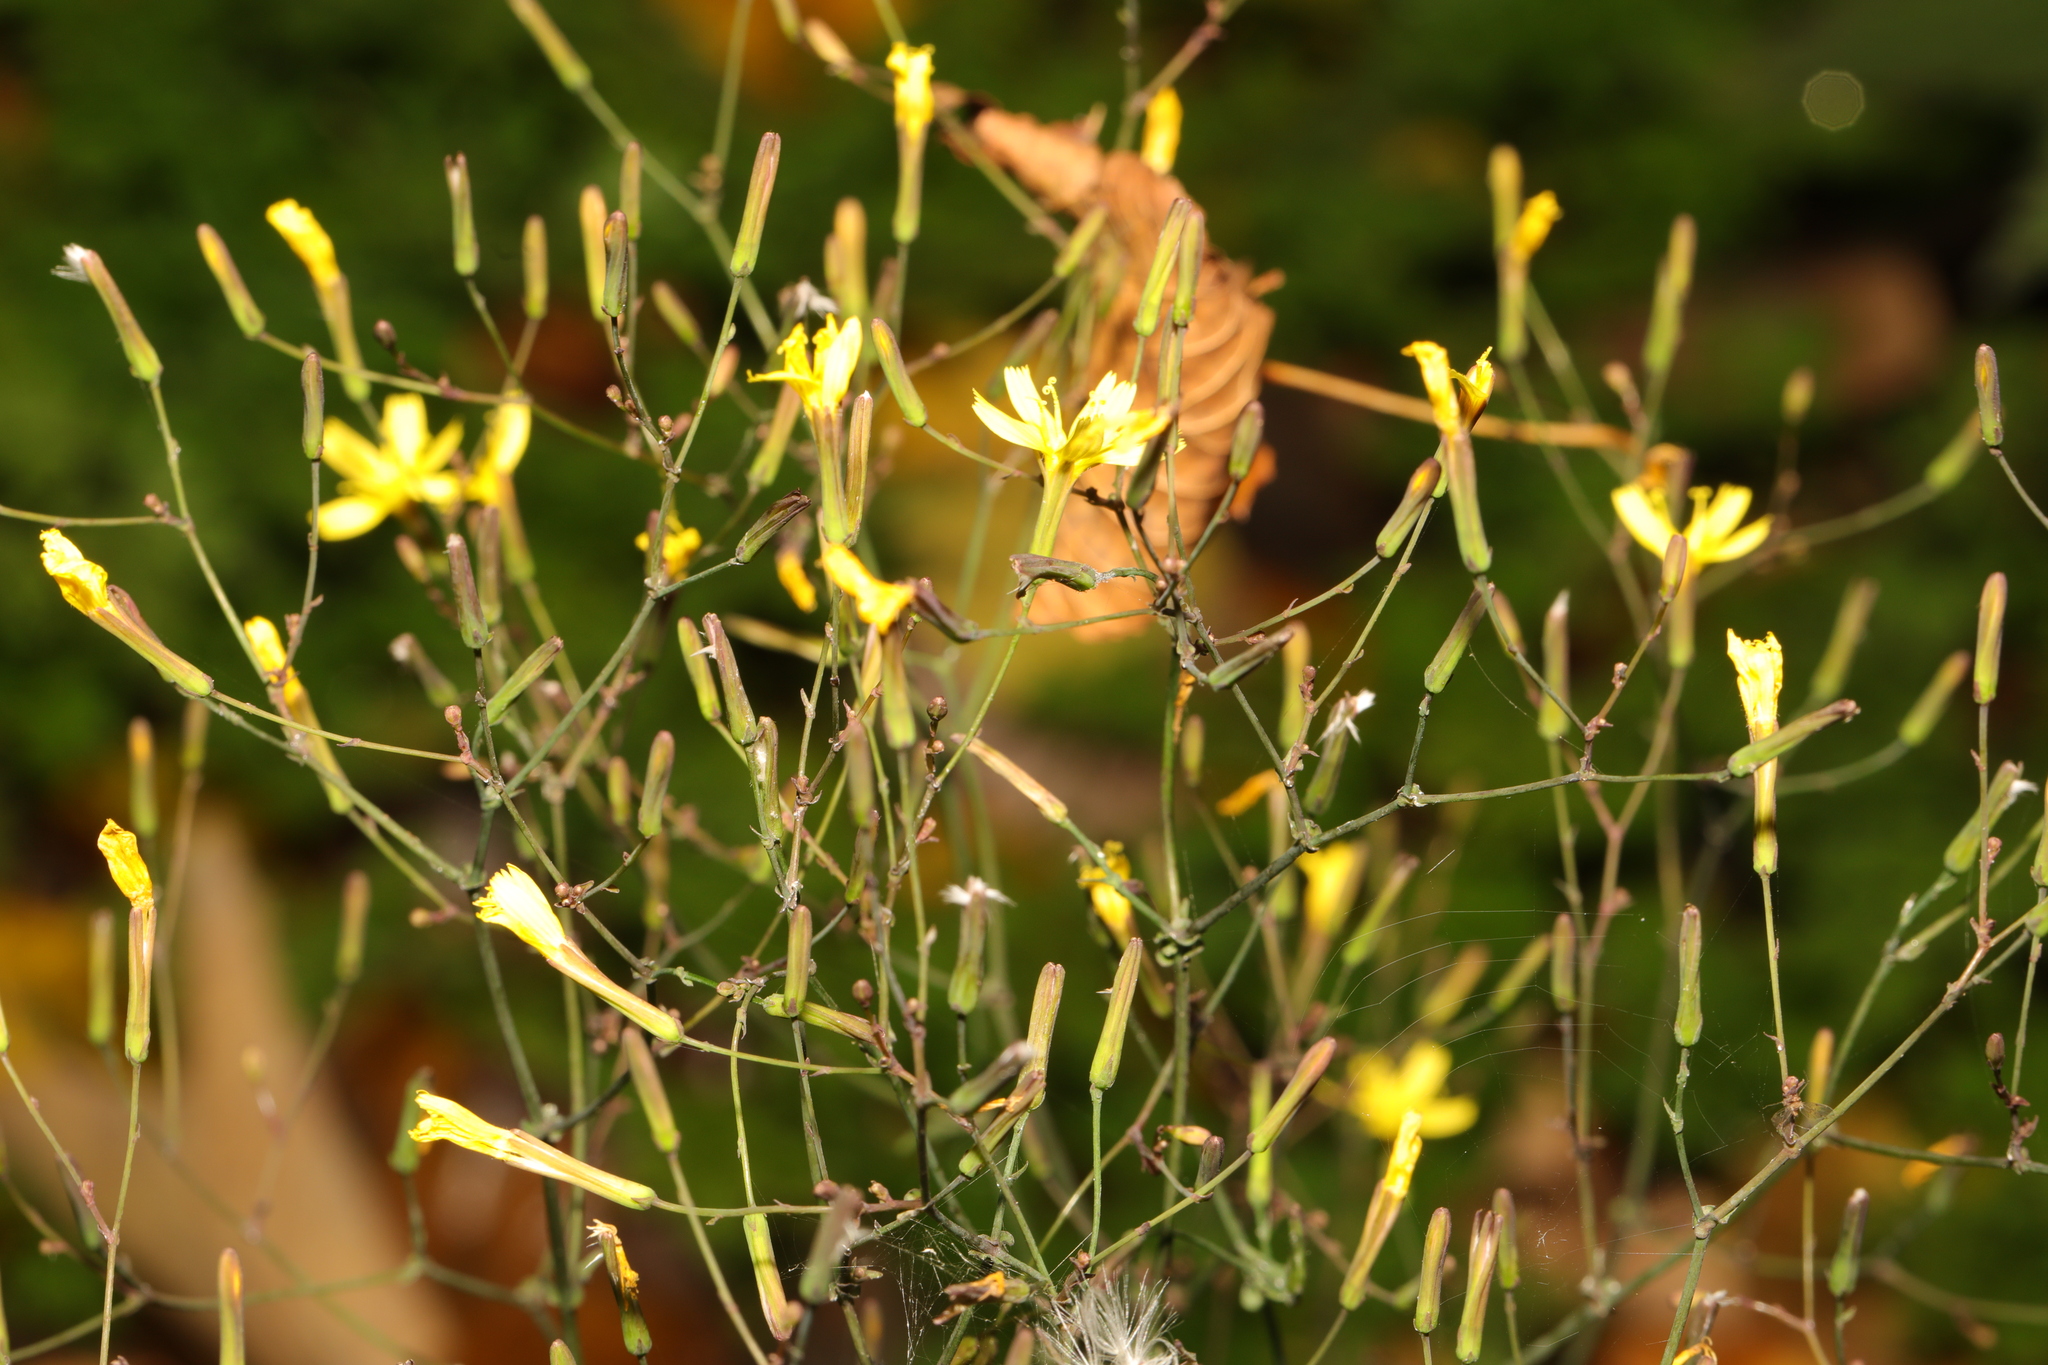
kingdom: Plantae
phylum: Tracheophyta
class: Magnoliopsida
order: Asterales
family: Asteraceae
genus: Mycelis
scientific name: Mycelis muralis
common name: Wall lettuce
